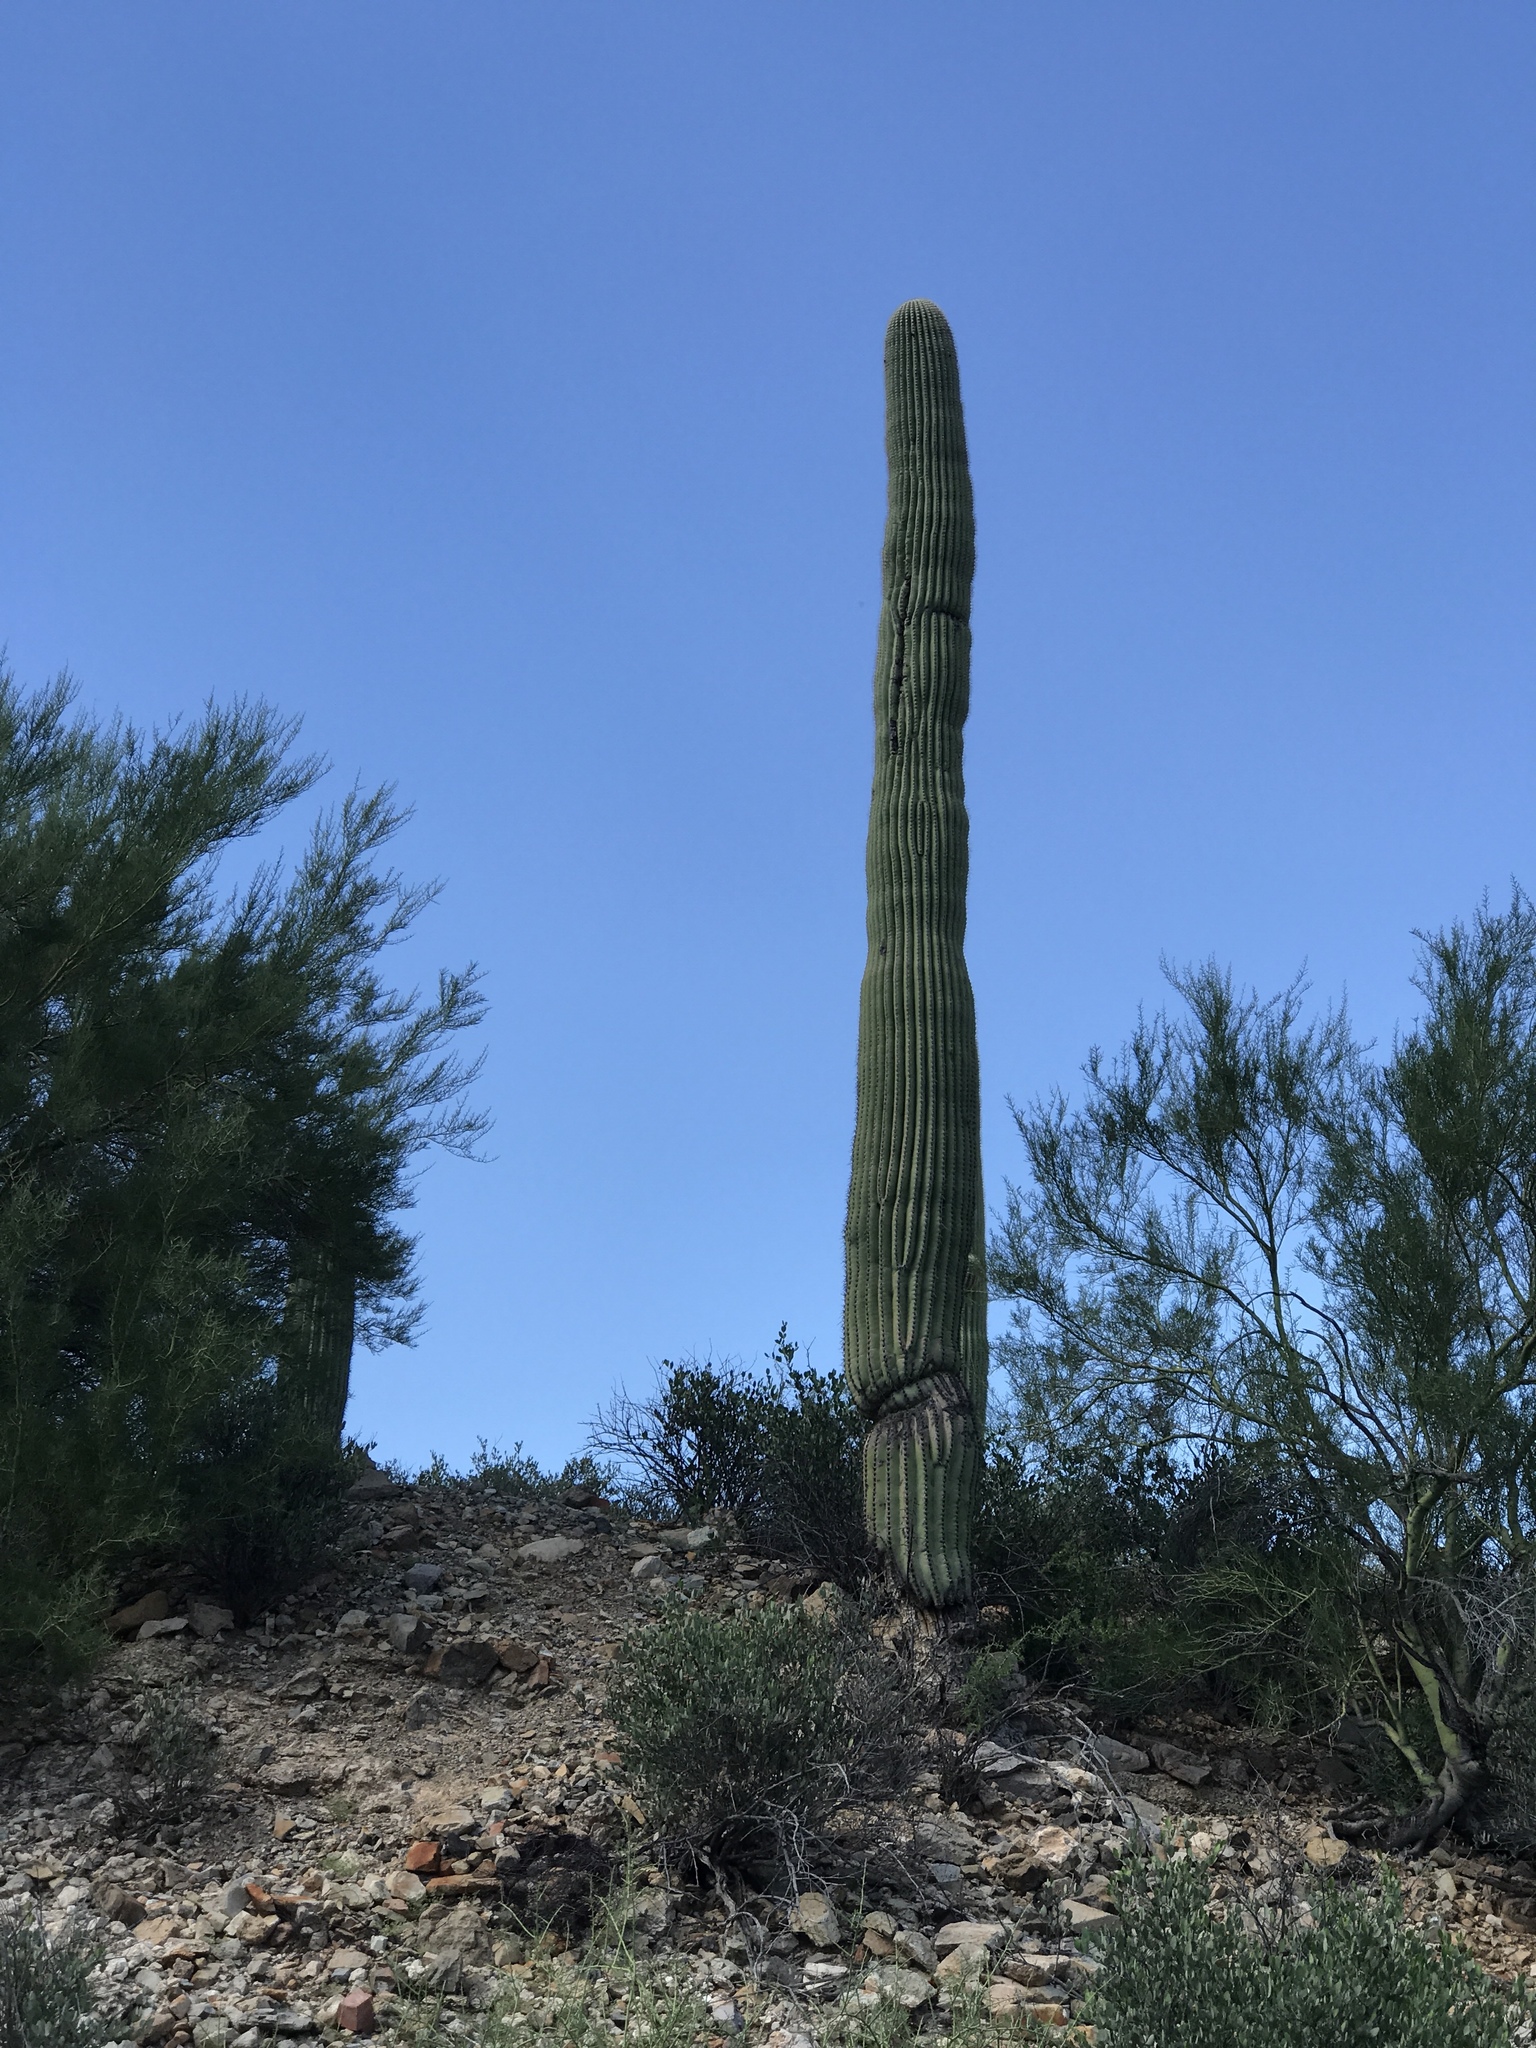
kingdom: Plantae
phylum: Tracheophyta
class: Magnoliopsida
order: Caryophyllales
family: Cactaceae
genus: Carnegiea
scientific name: Carnegiea gigantea
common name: Saguaro
